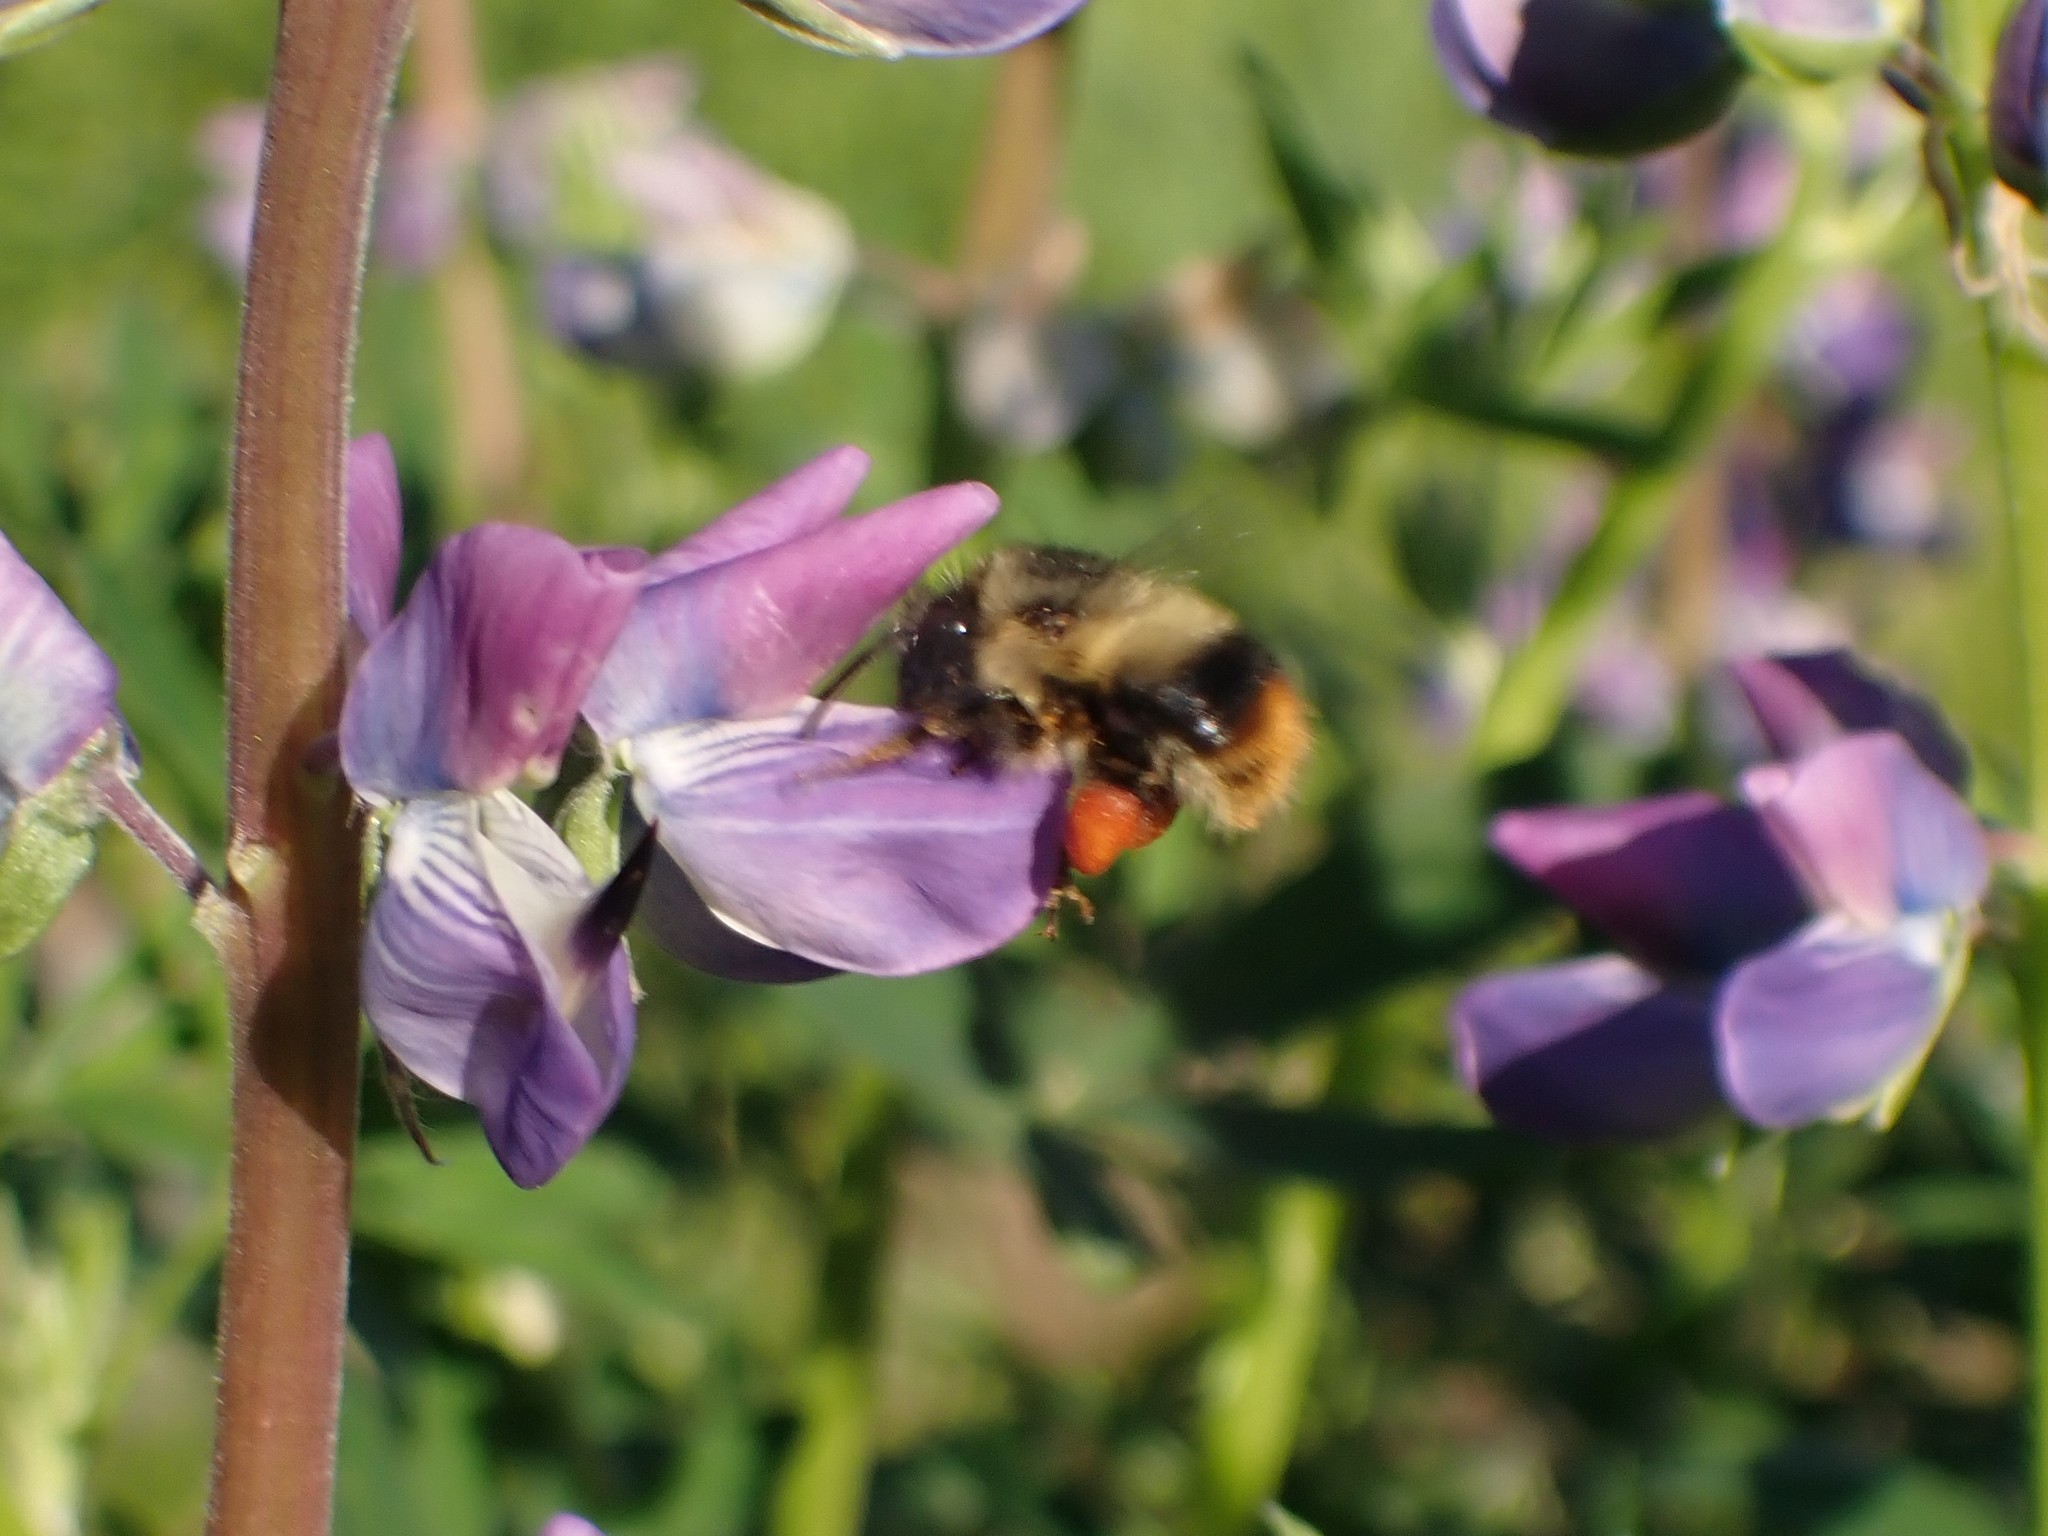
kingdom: Animalia
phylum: Arthropoda
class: Insecta
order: Hymenoptera
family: Apidae
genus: Bombus
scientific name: Bombus mixtus
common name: Fuzzy-horned bumble bee
